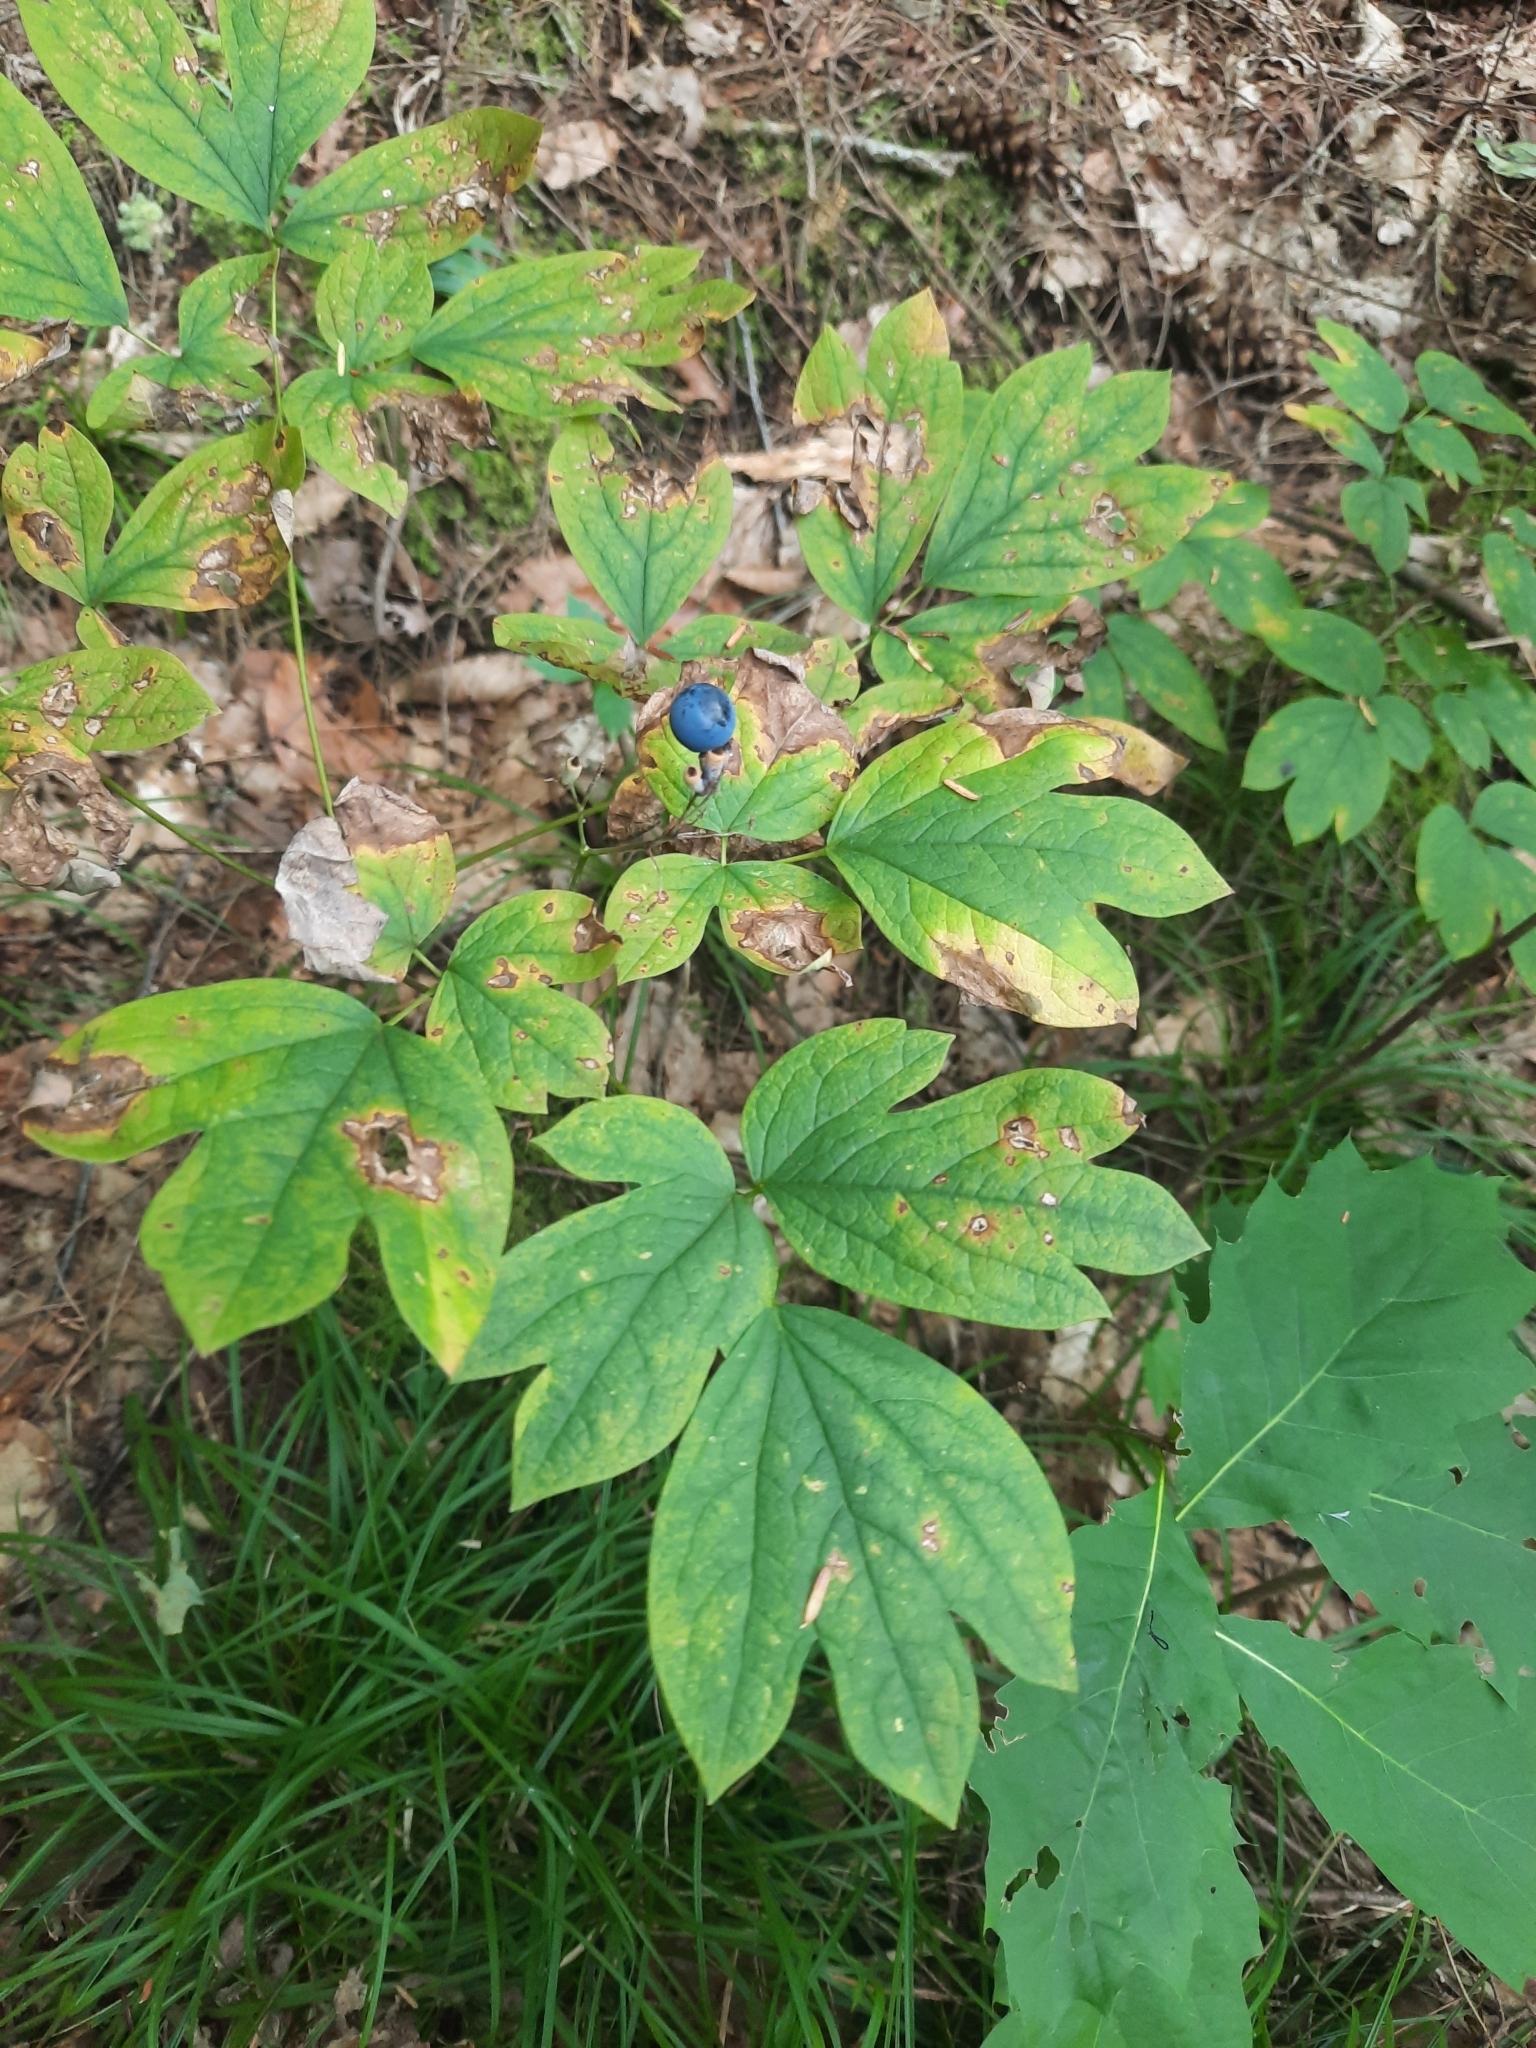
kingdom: Plantae
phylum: Tracheophyta
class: Magnoliopsida
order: Ranunculales
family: Berberidaceae
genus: Caulophyllum
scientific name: Caulophyllum thalictroides
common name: Blue cohosh
